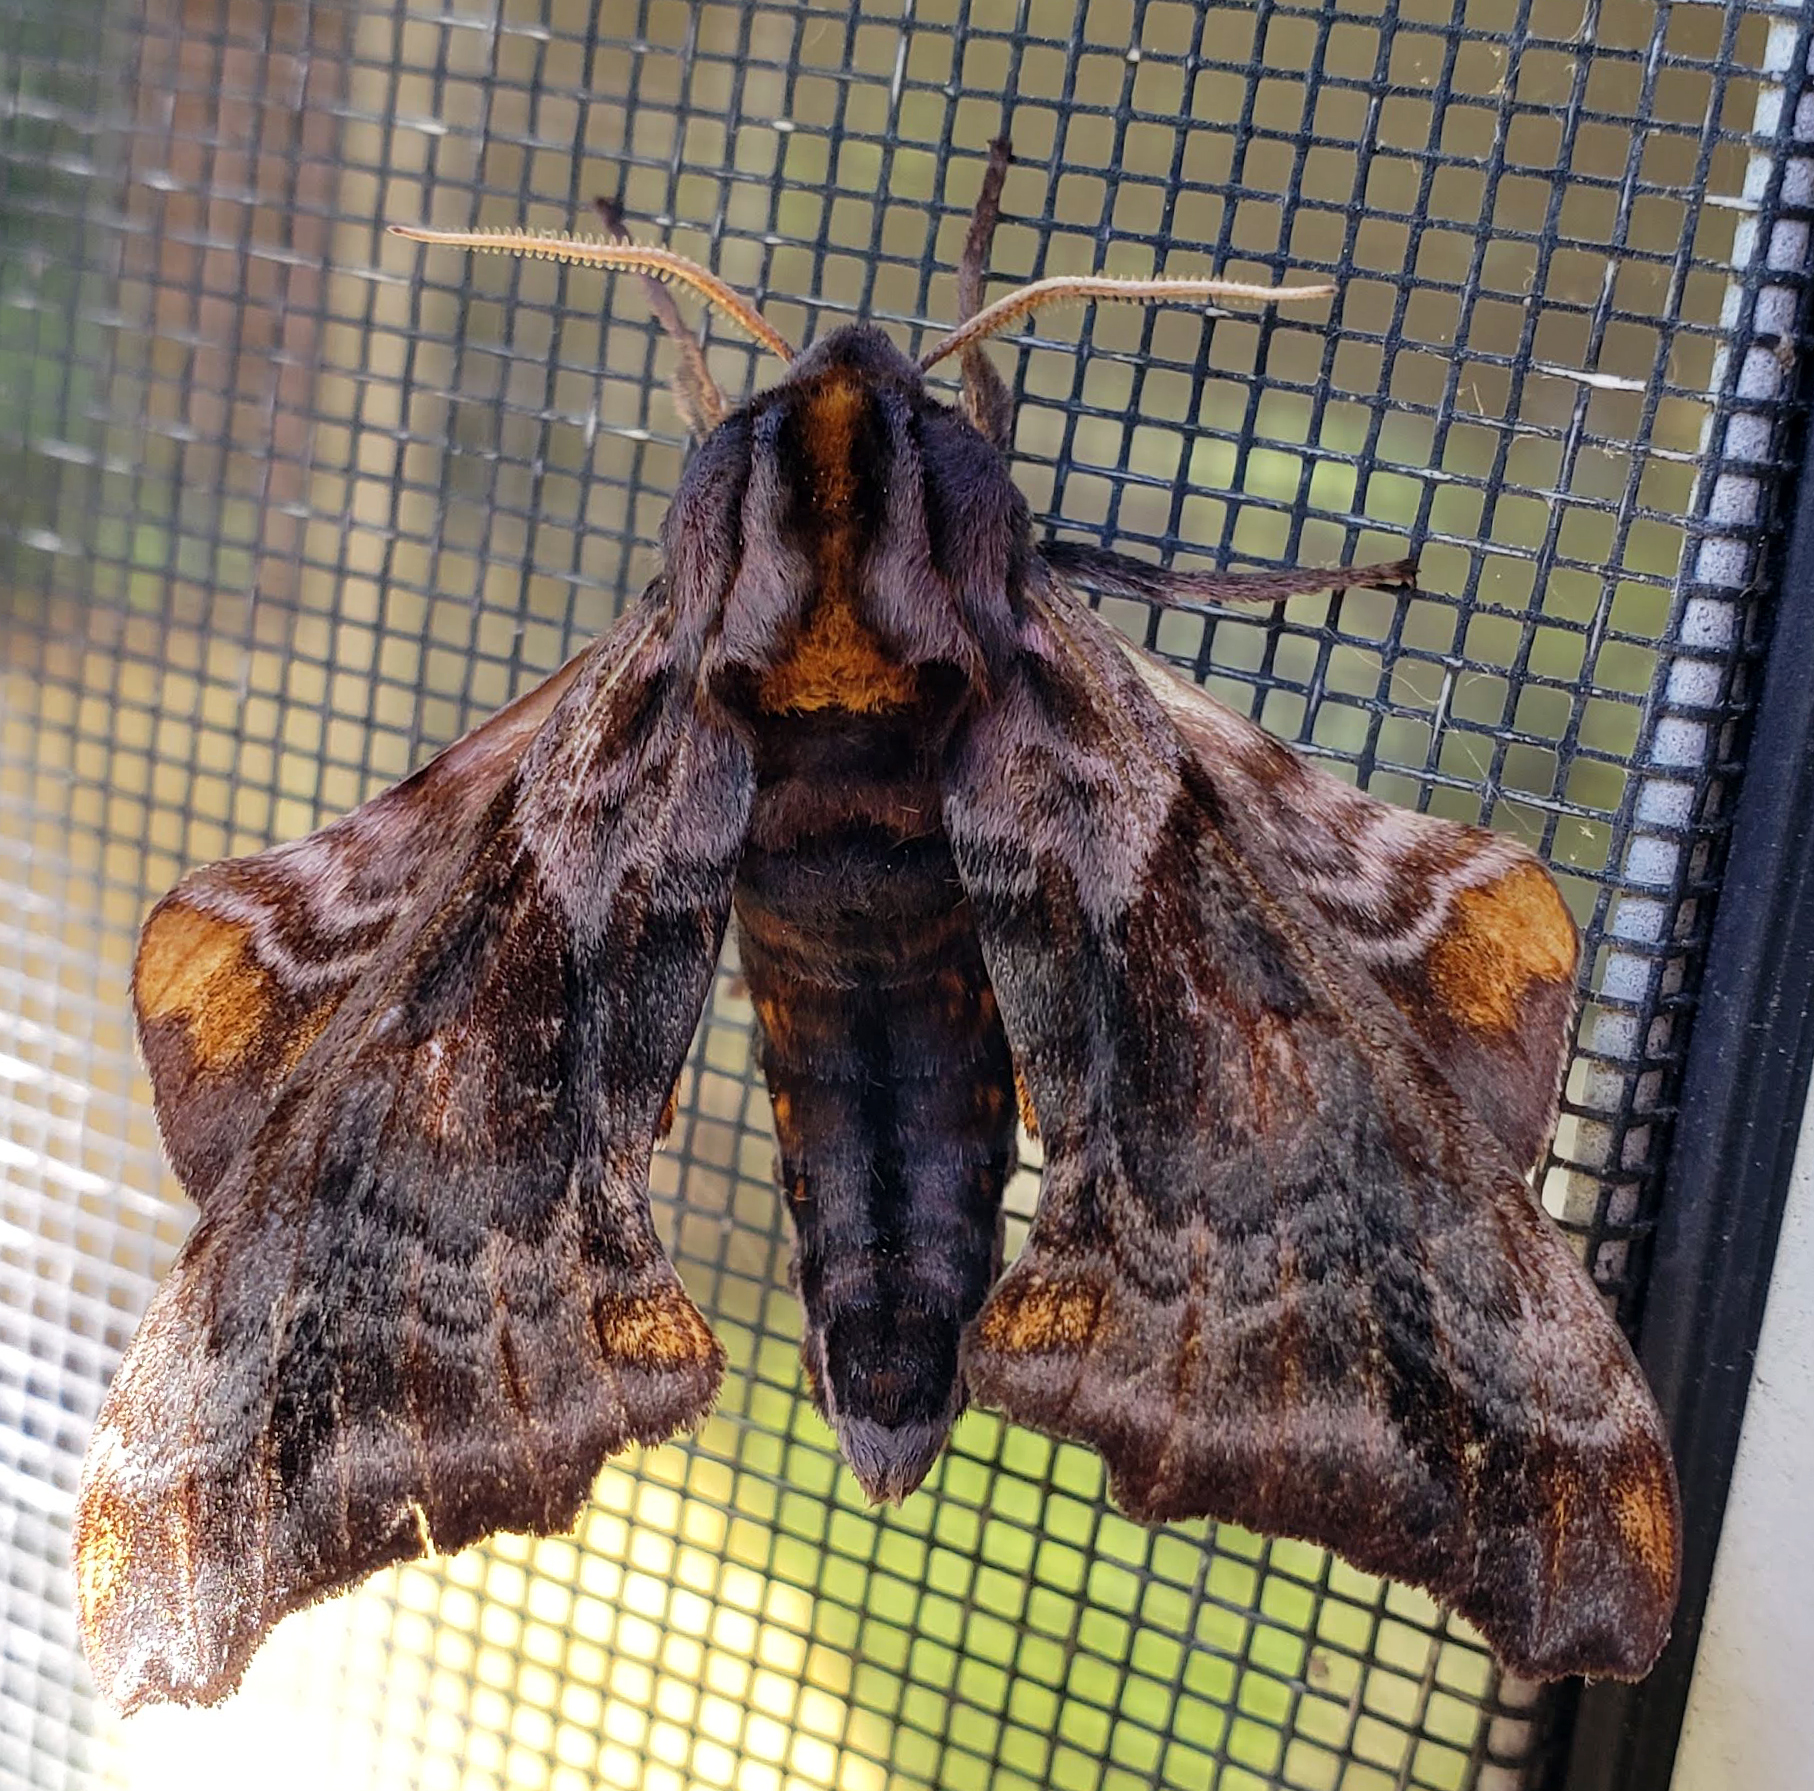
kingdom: Animalia
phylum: Arthropoda
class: Insecta
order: Lepidoptera
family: Sphingidae
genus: Paonias
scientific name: Paonias myops
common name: Small-eyed sphinx
